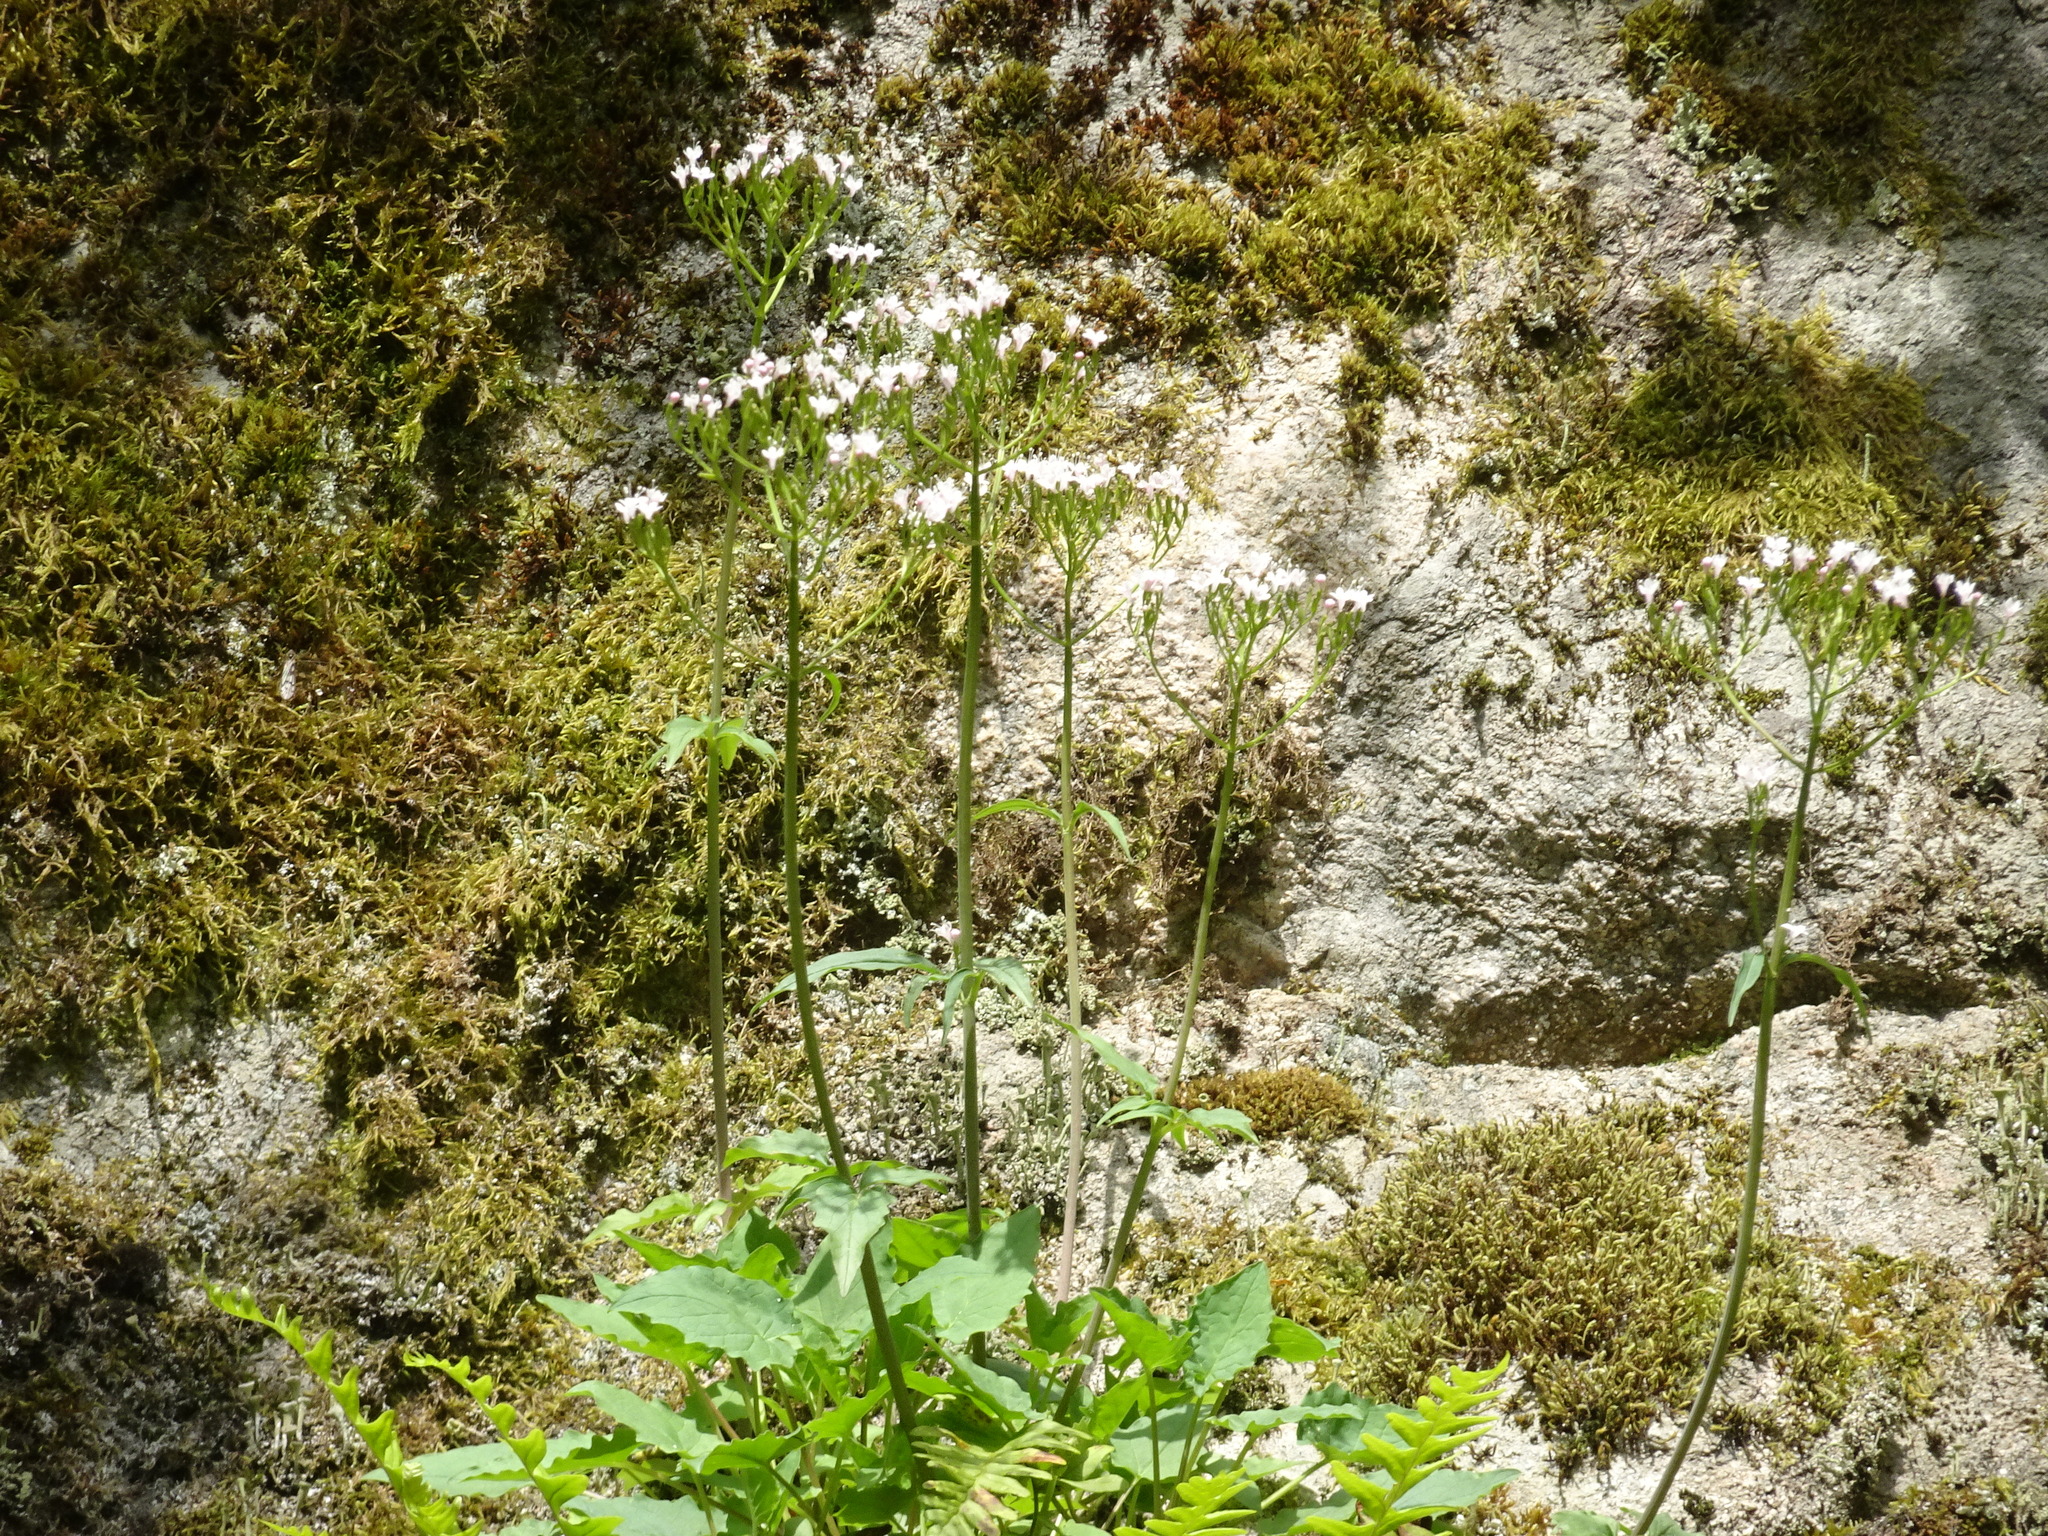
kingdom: Plantae
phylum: Tracheophyta
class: Magnoliopsida
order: Dipsacales
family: Caprifoliaceae
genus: Valeriana
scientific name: Valeriana tripteris
